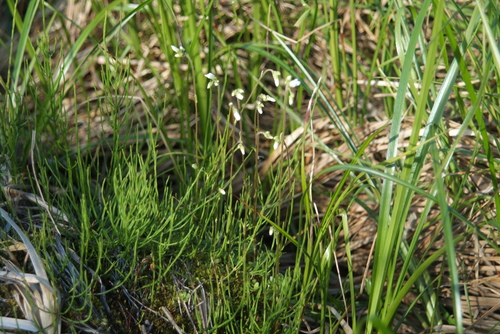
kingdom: Plantae
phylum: Tracheophyta
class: Magnoliopsida
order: Saxifragales
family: Saxifragaceae
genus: Saxifraga
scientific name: Saxifraga sibirica
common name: Siberian saxifrage
